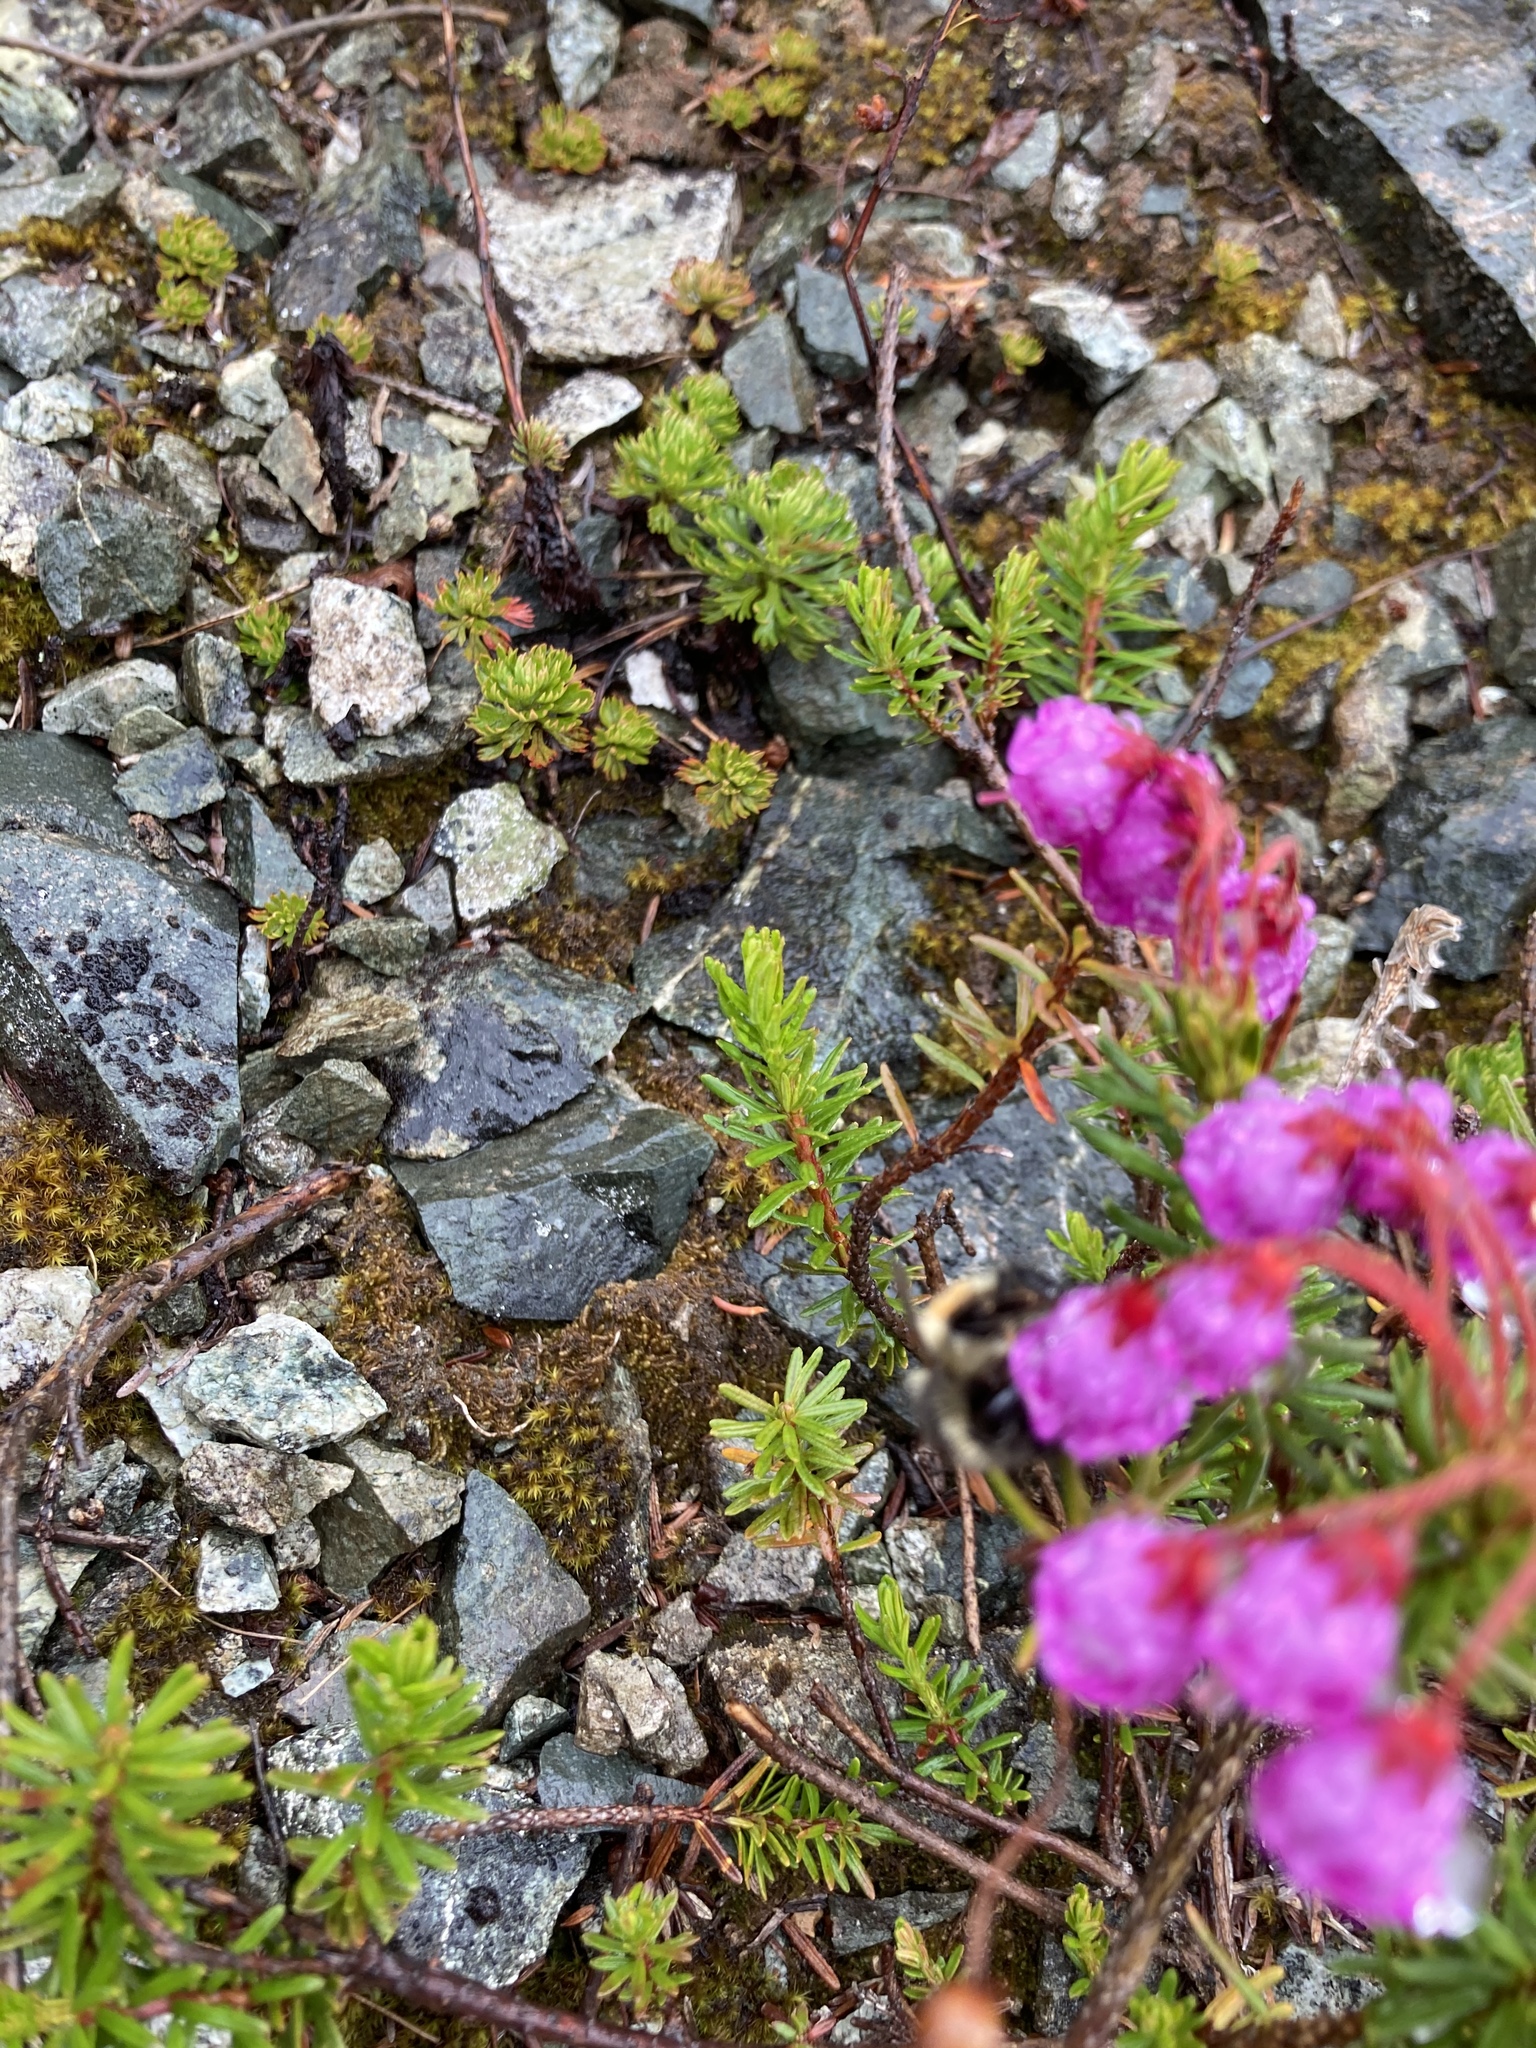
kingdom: Plantae
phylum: Tracheophyta
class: Magnoliopsida
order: Ericales
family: Ericaceae
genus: Phyllodoce
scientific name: Phyllodoce empetriformis
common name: Pink mountain heather
